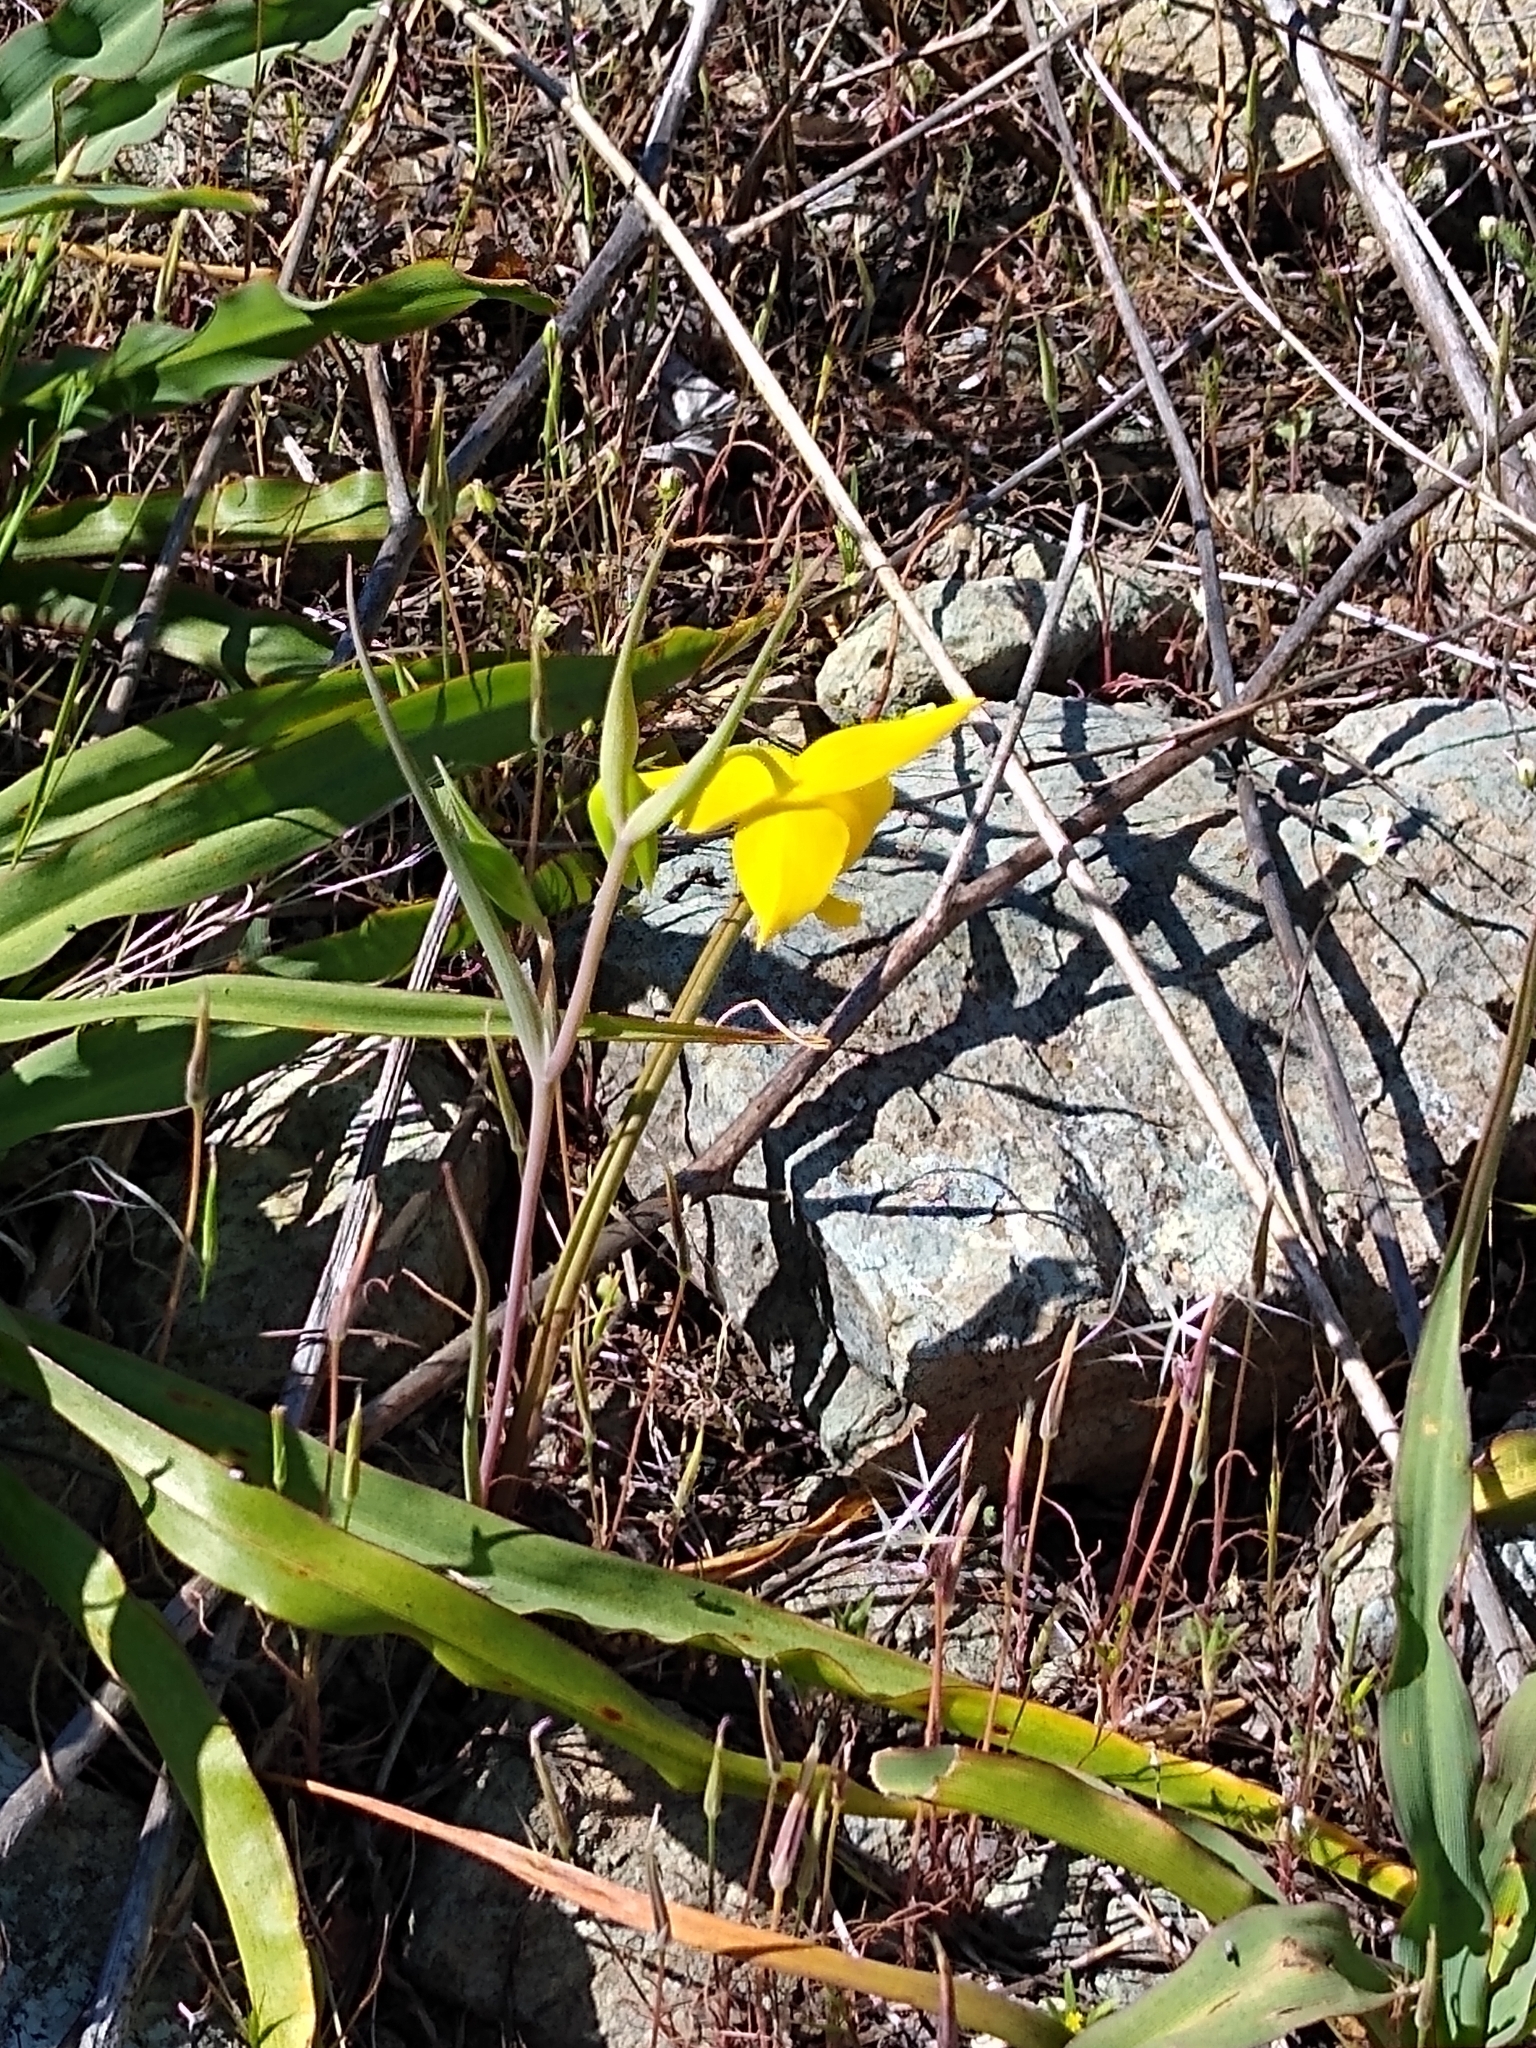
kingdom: Plantae
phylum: Tracheophyta
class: Liliopsida
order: Liliales
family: Liliaceae
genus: Calochortus
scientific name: Calochortus amabilis
